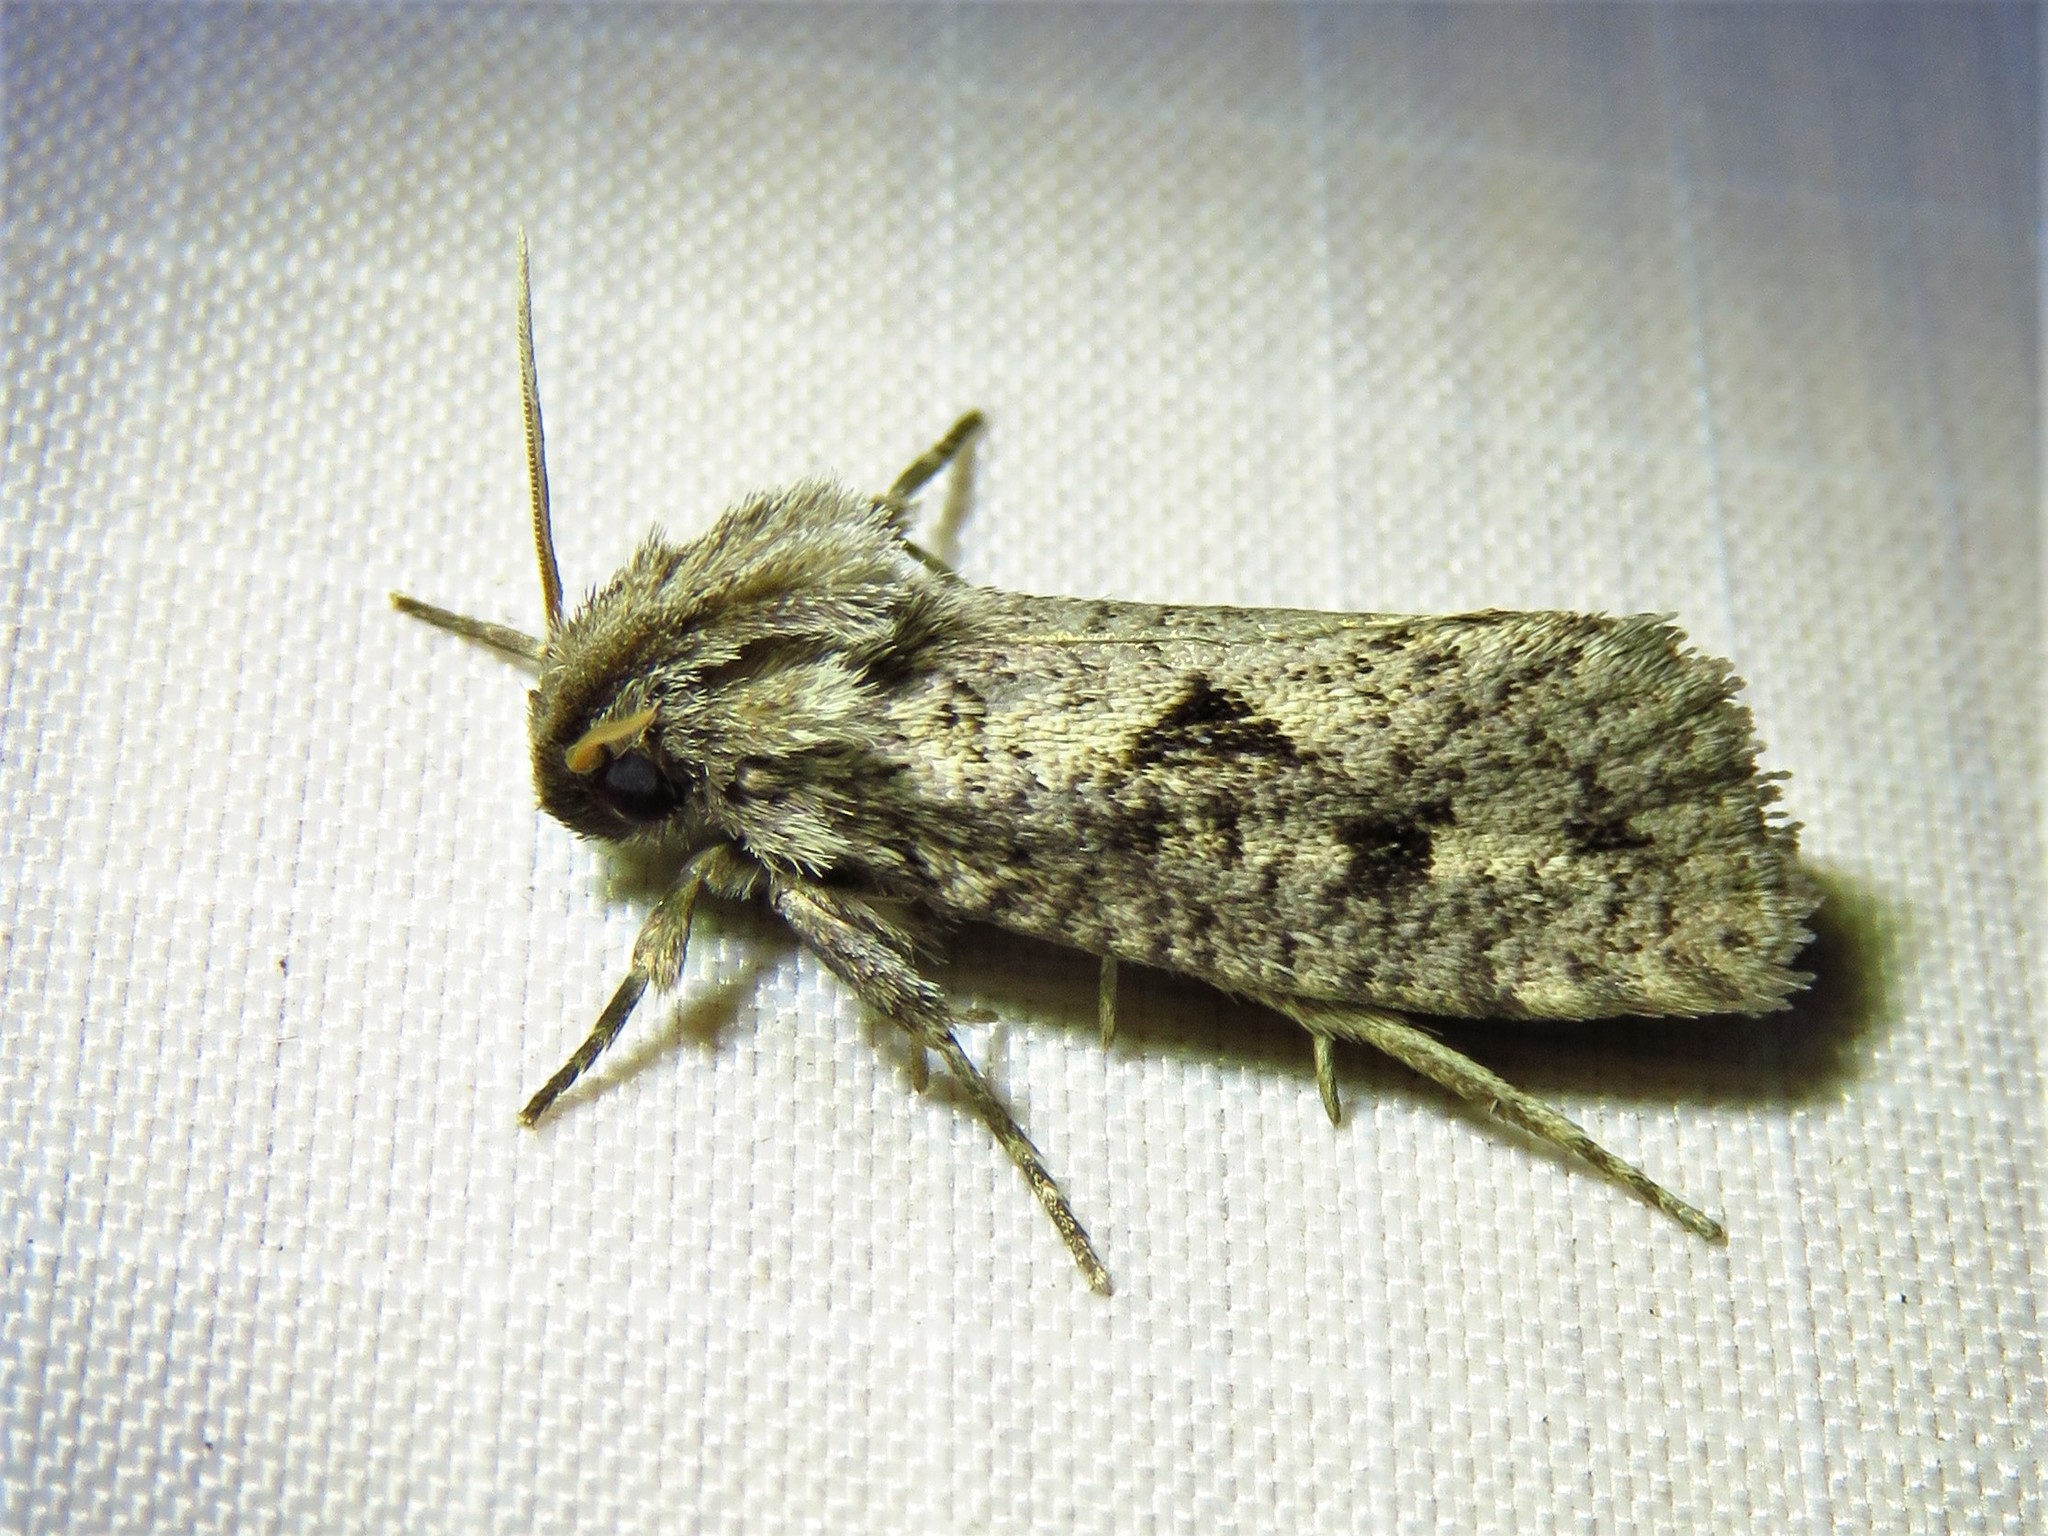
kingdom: Animalia
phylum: Arthropoda
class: Insecta
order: Lepidoptera
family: Tineidae
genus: Acrolophus
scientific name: Acrolophus popeanella
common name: Clemens' grass tubeworm moth
